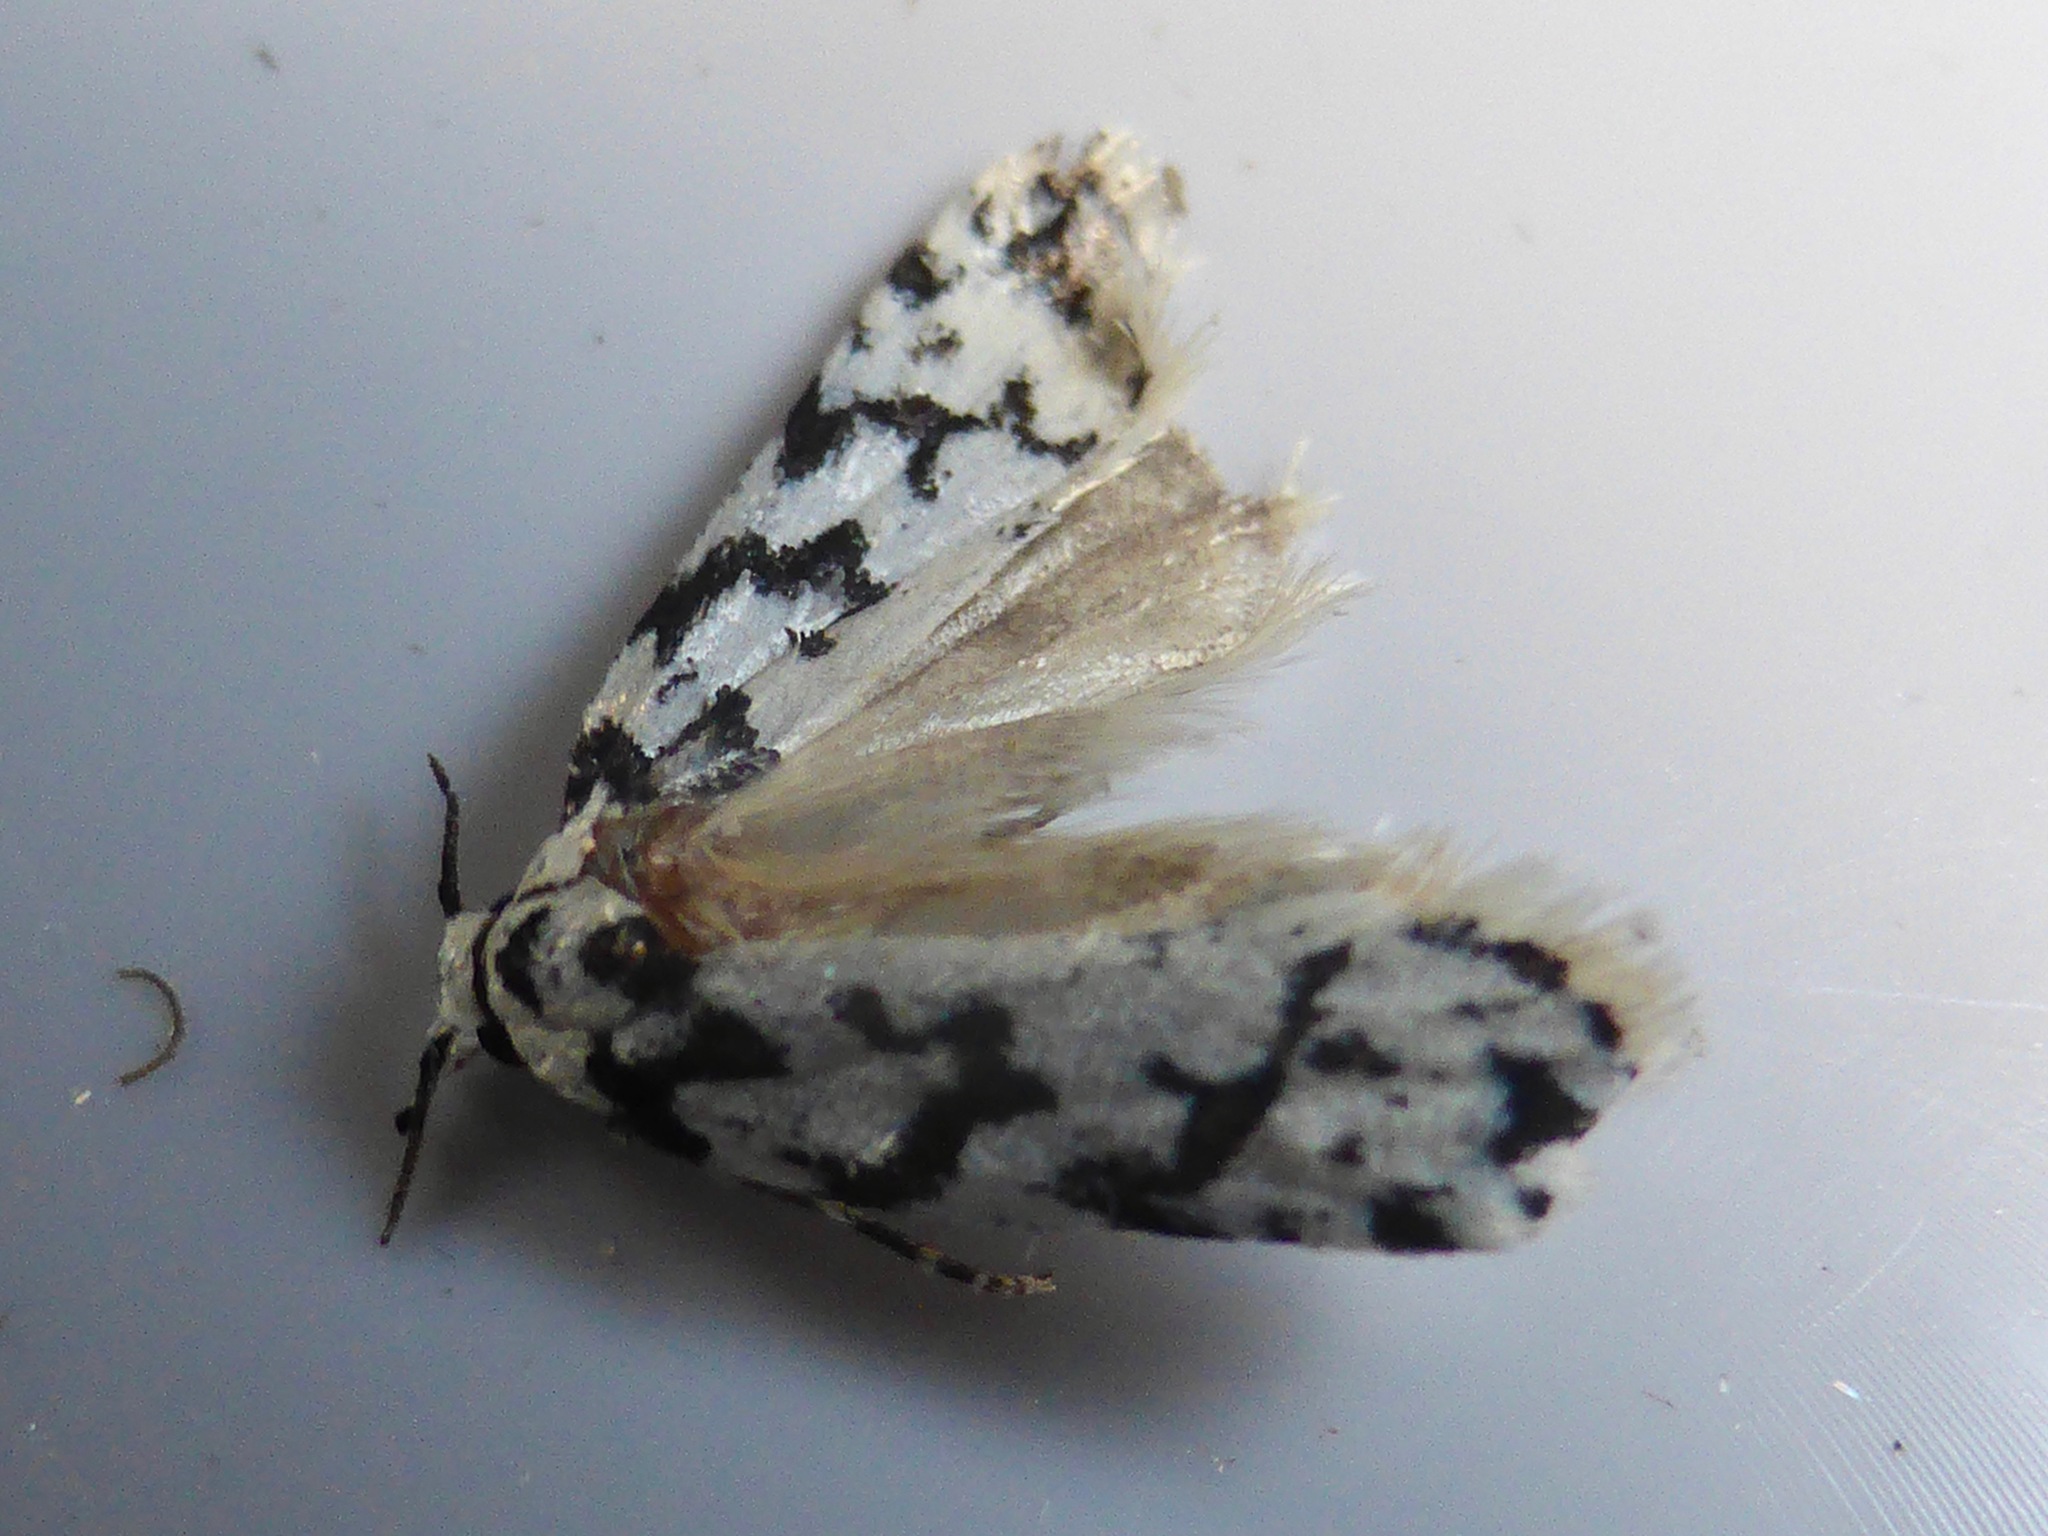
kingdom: Animalia
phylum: Arthropoda
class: Insecta
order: Lepidoptera
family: Oecophoridae
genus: Izatha
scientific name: Izatha katadiktya
